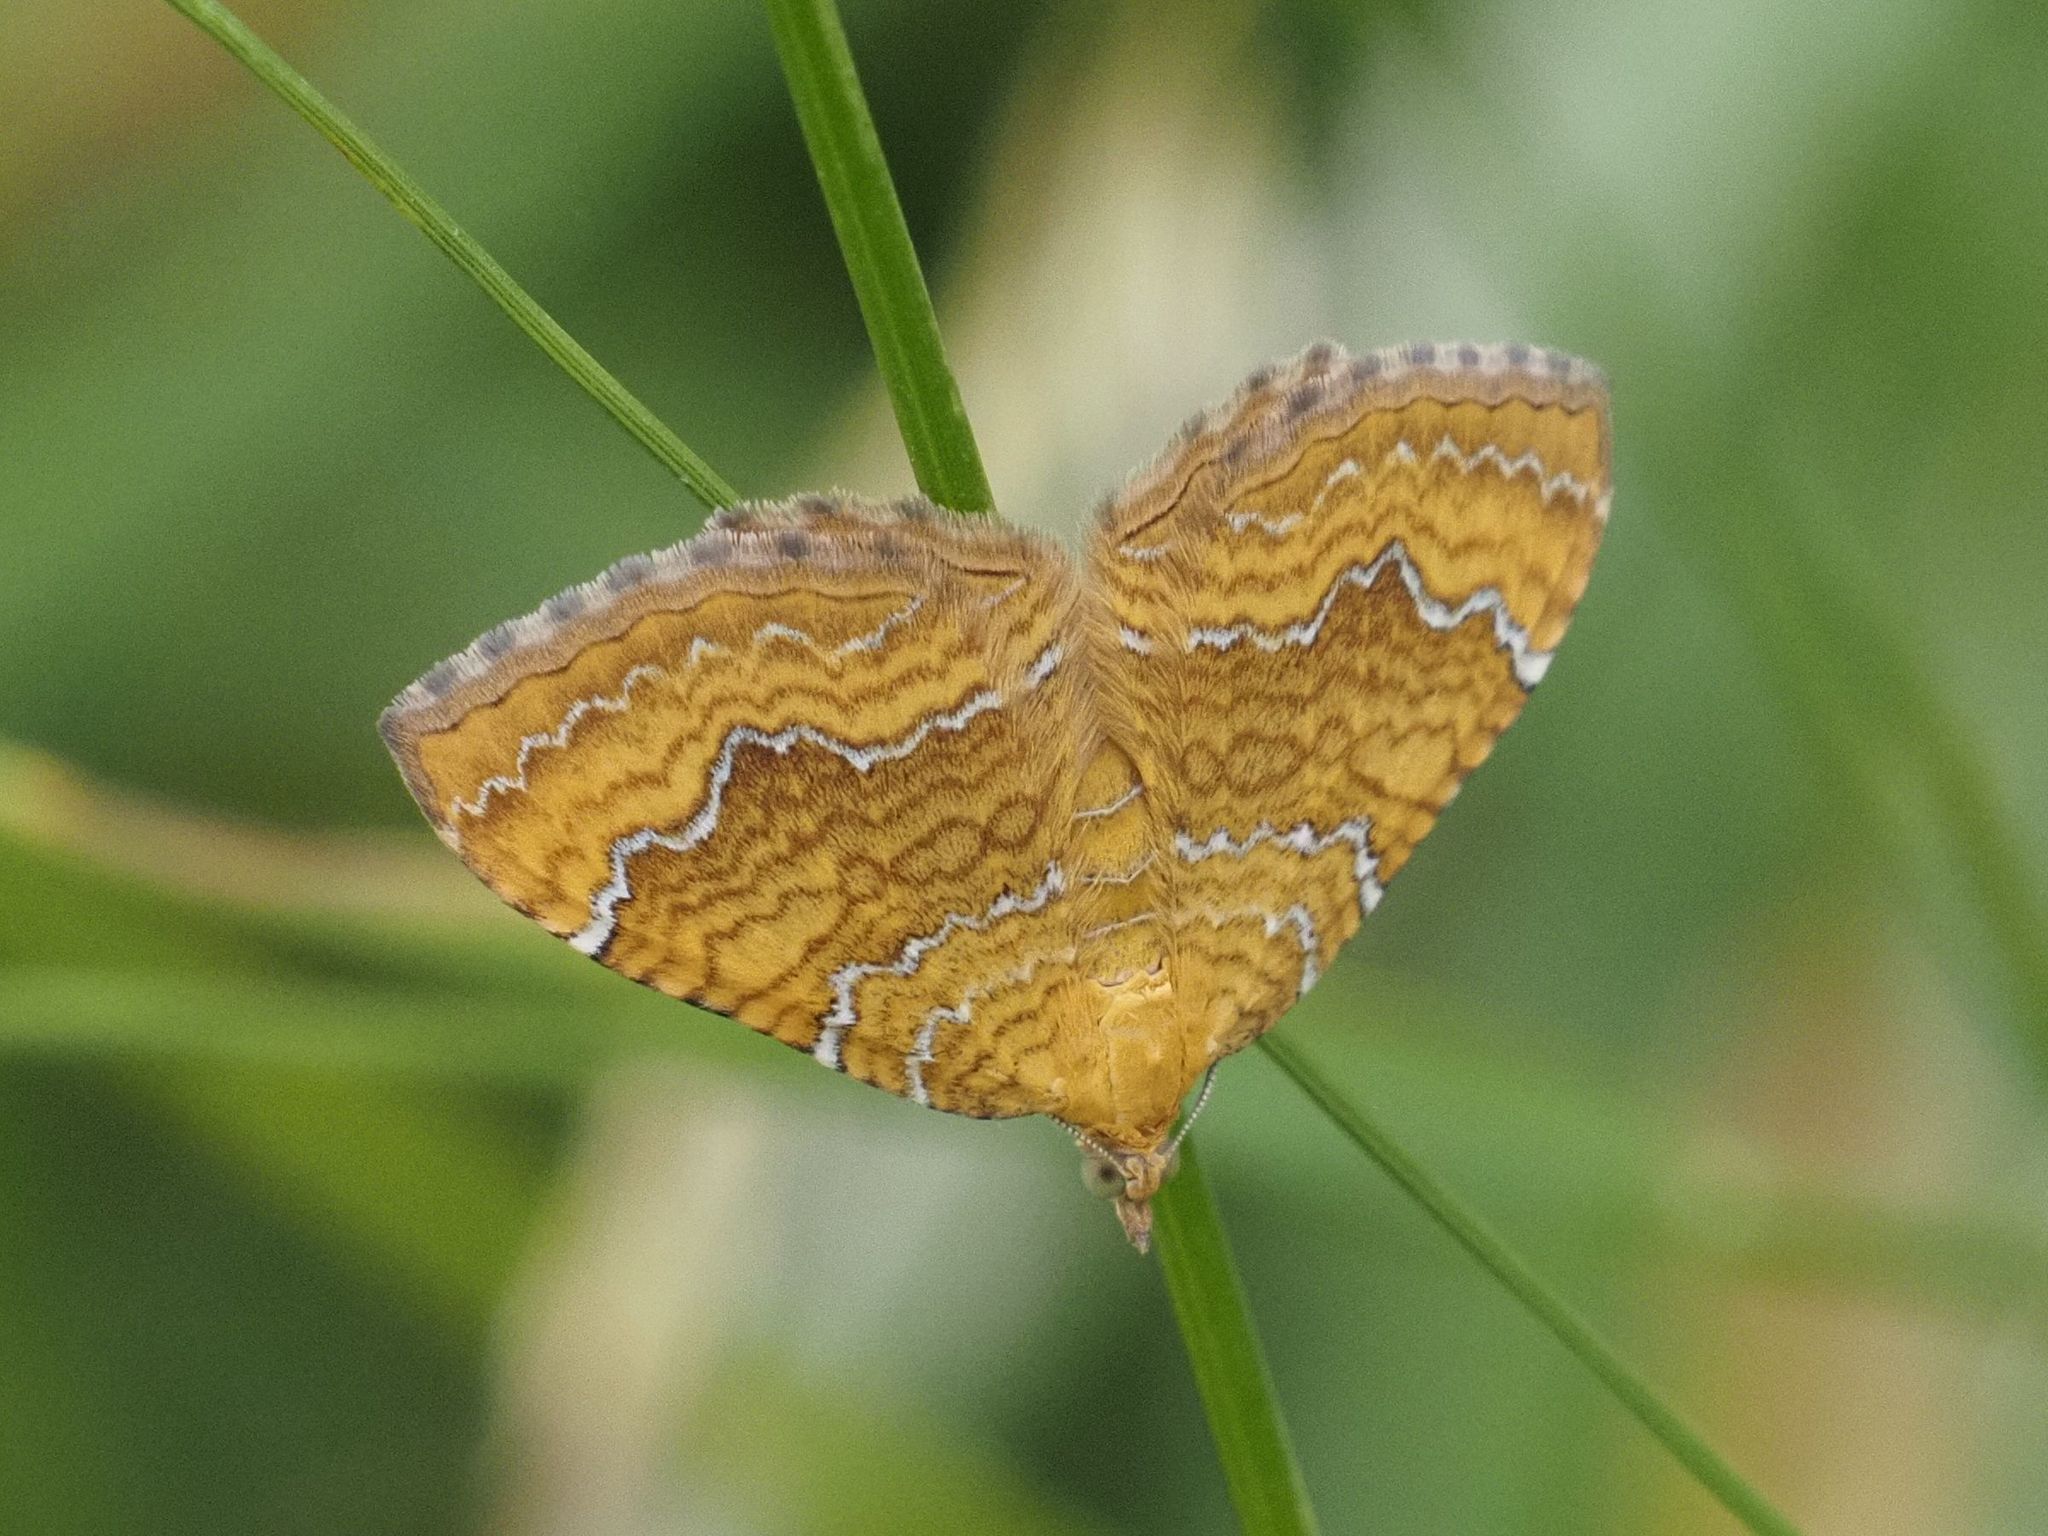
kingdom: Animalia
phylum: Arthropoda
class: Insecta
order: Lepidoptera
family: Geometridae
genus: Camptogramma
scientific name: Camptogramma bilineata
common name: Yellow shell
